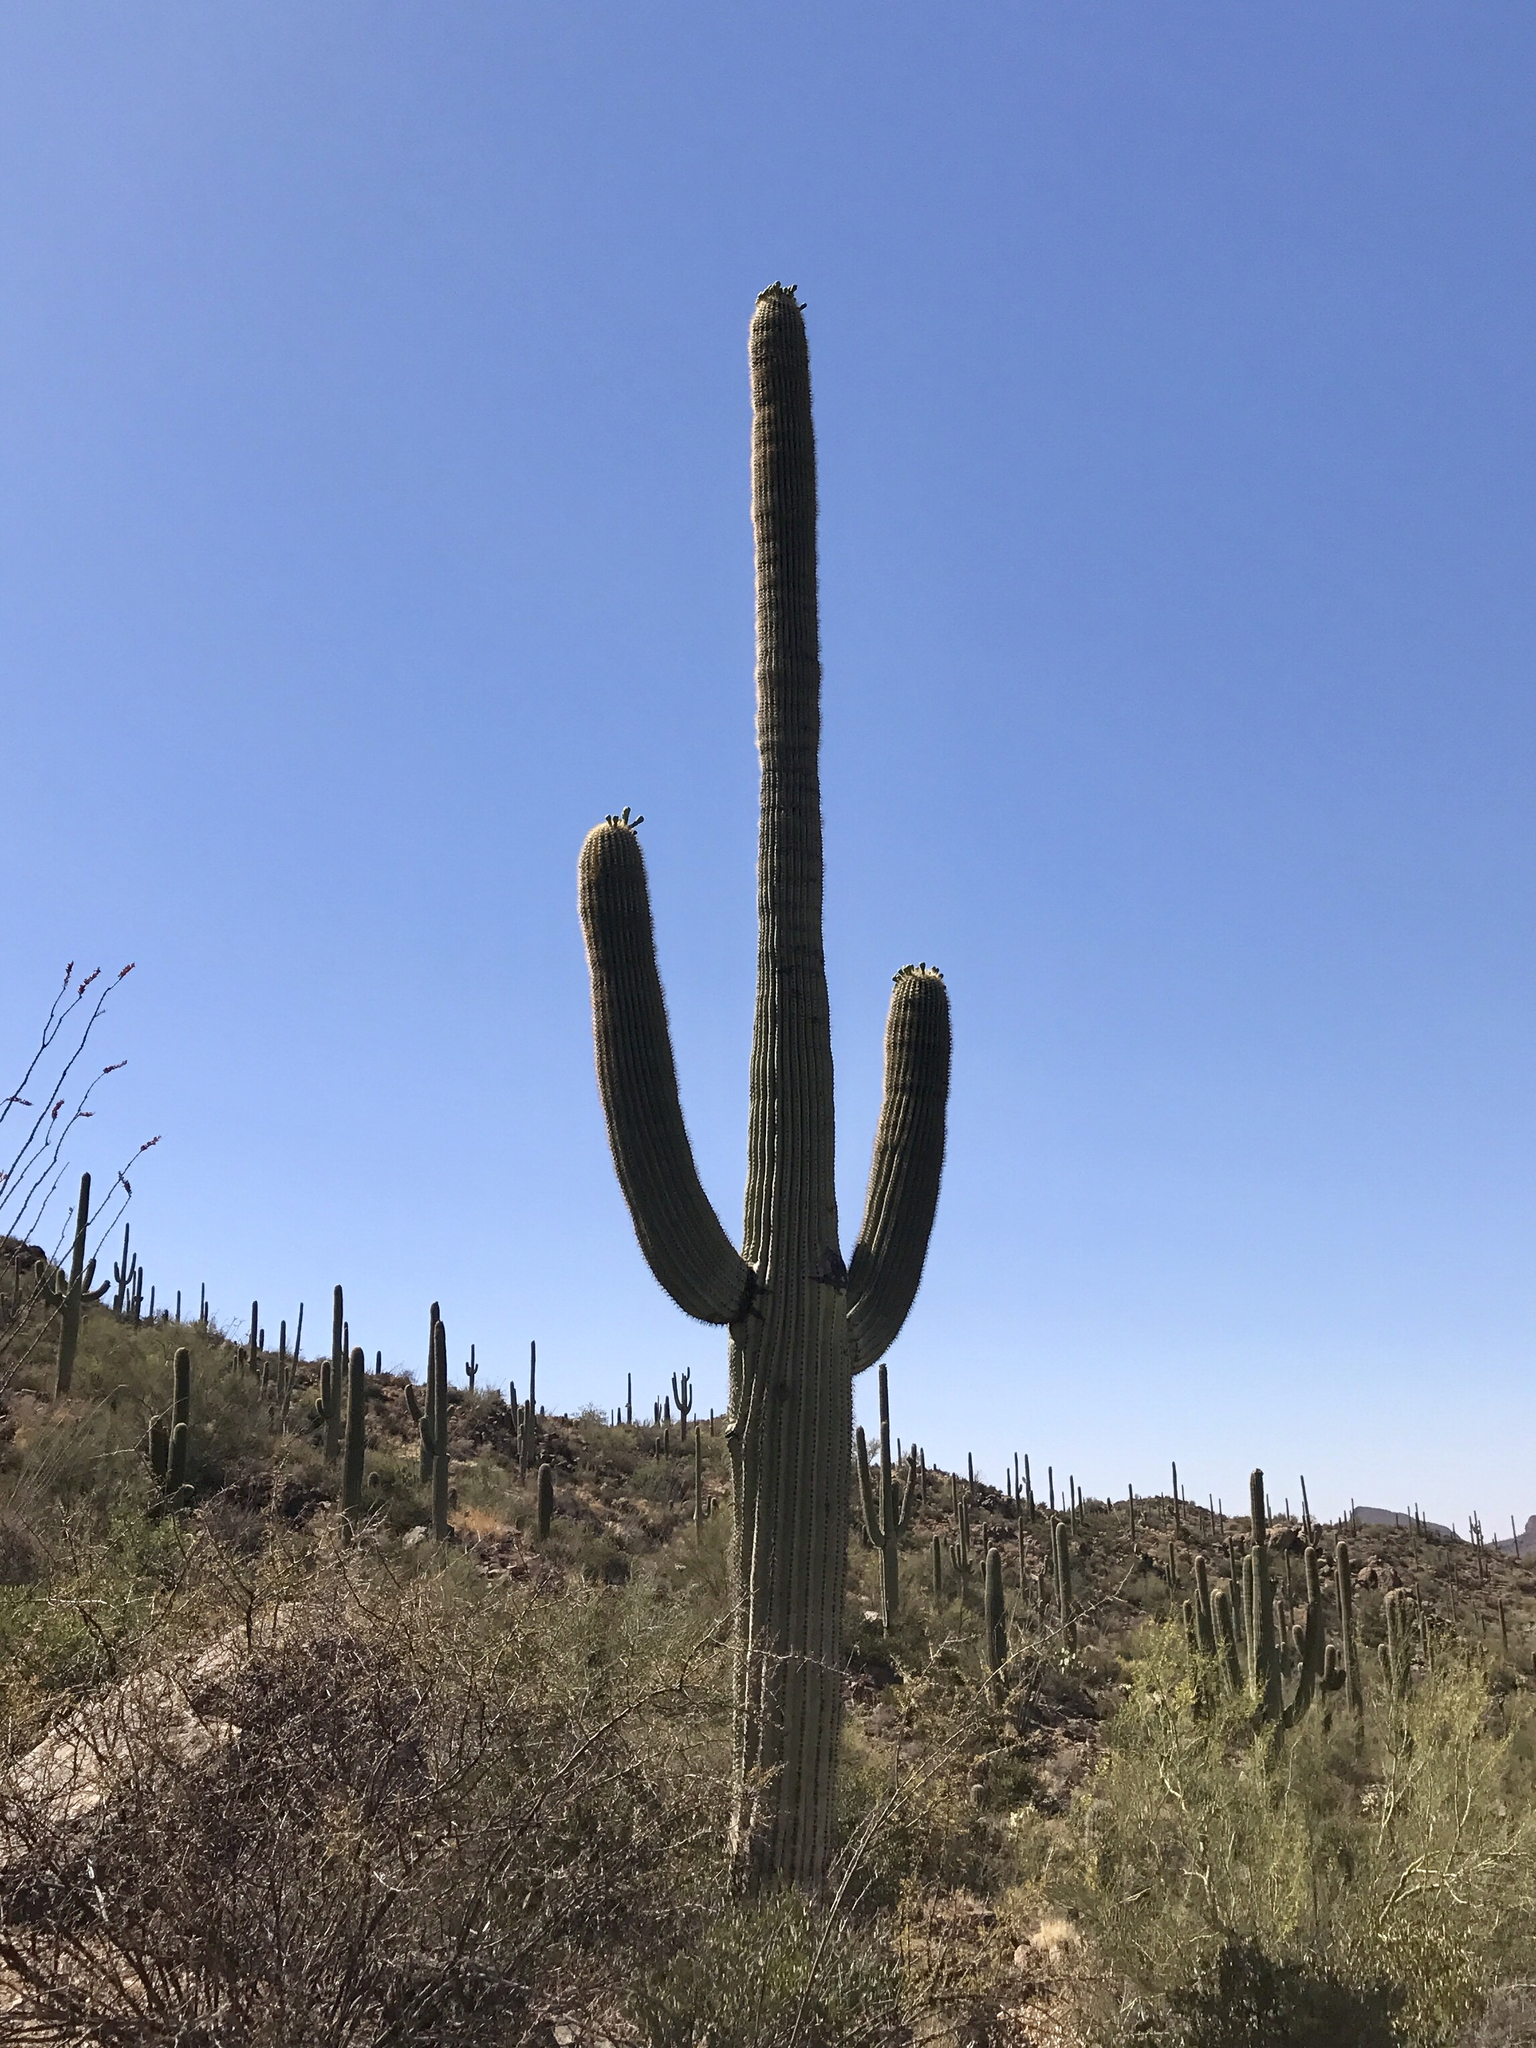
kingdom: Plantae
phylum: Tracheophyta
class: Magnoliopsida
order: Caryophyllales
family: Cactaceae
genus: Carnegiea
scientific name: Carnegiea gigantea
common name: Saguaro
